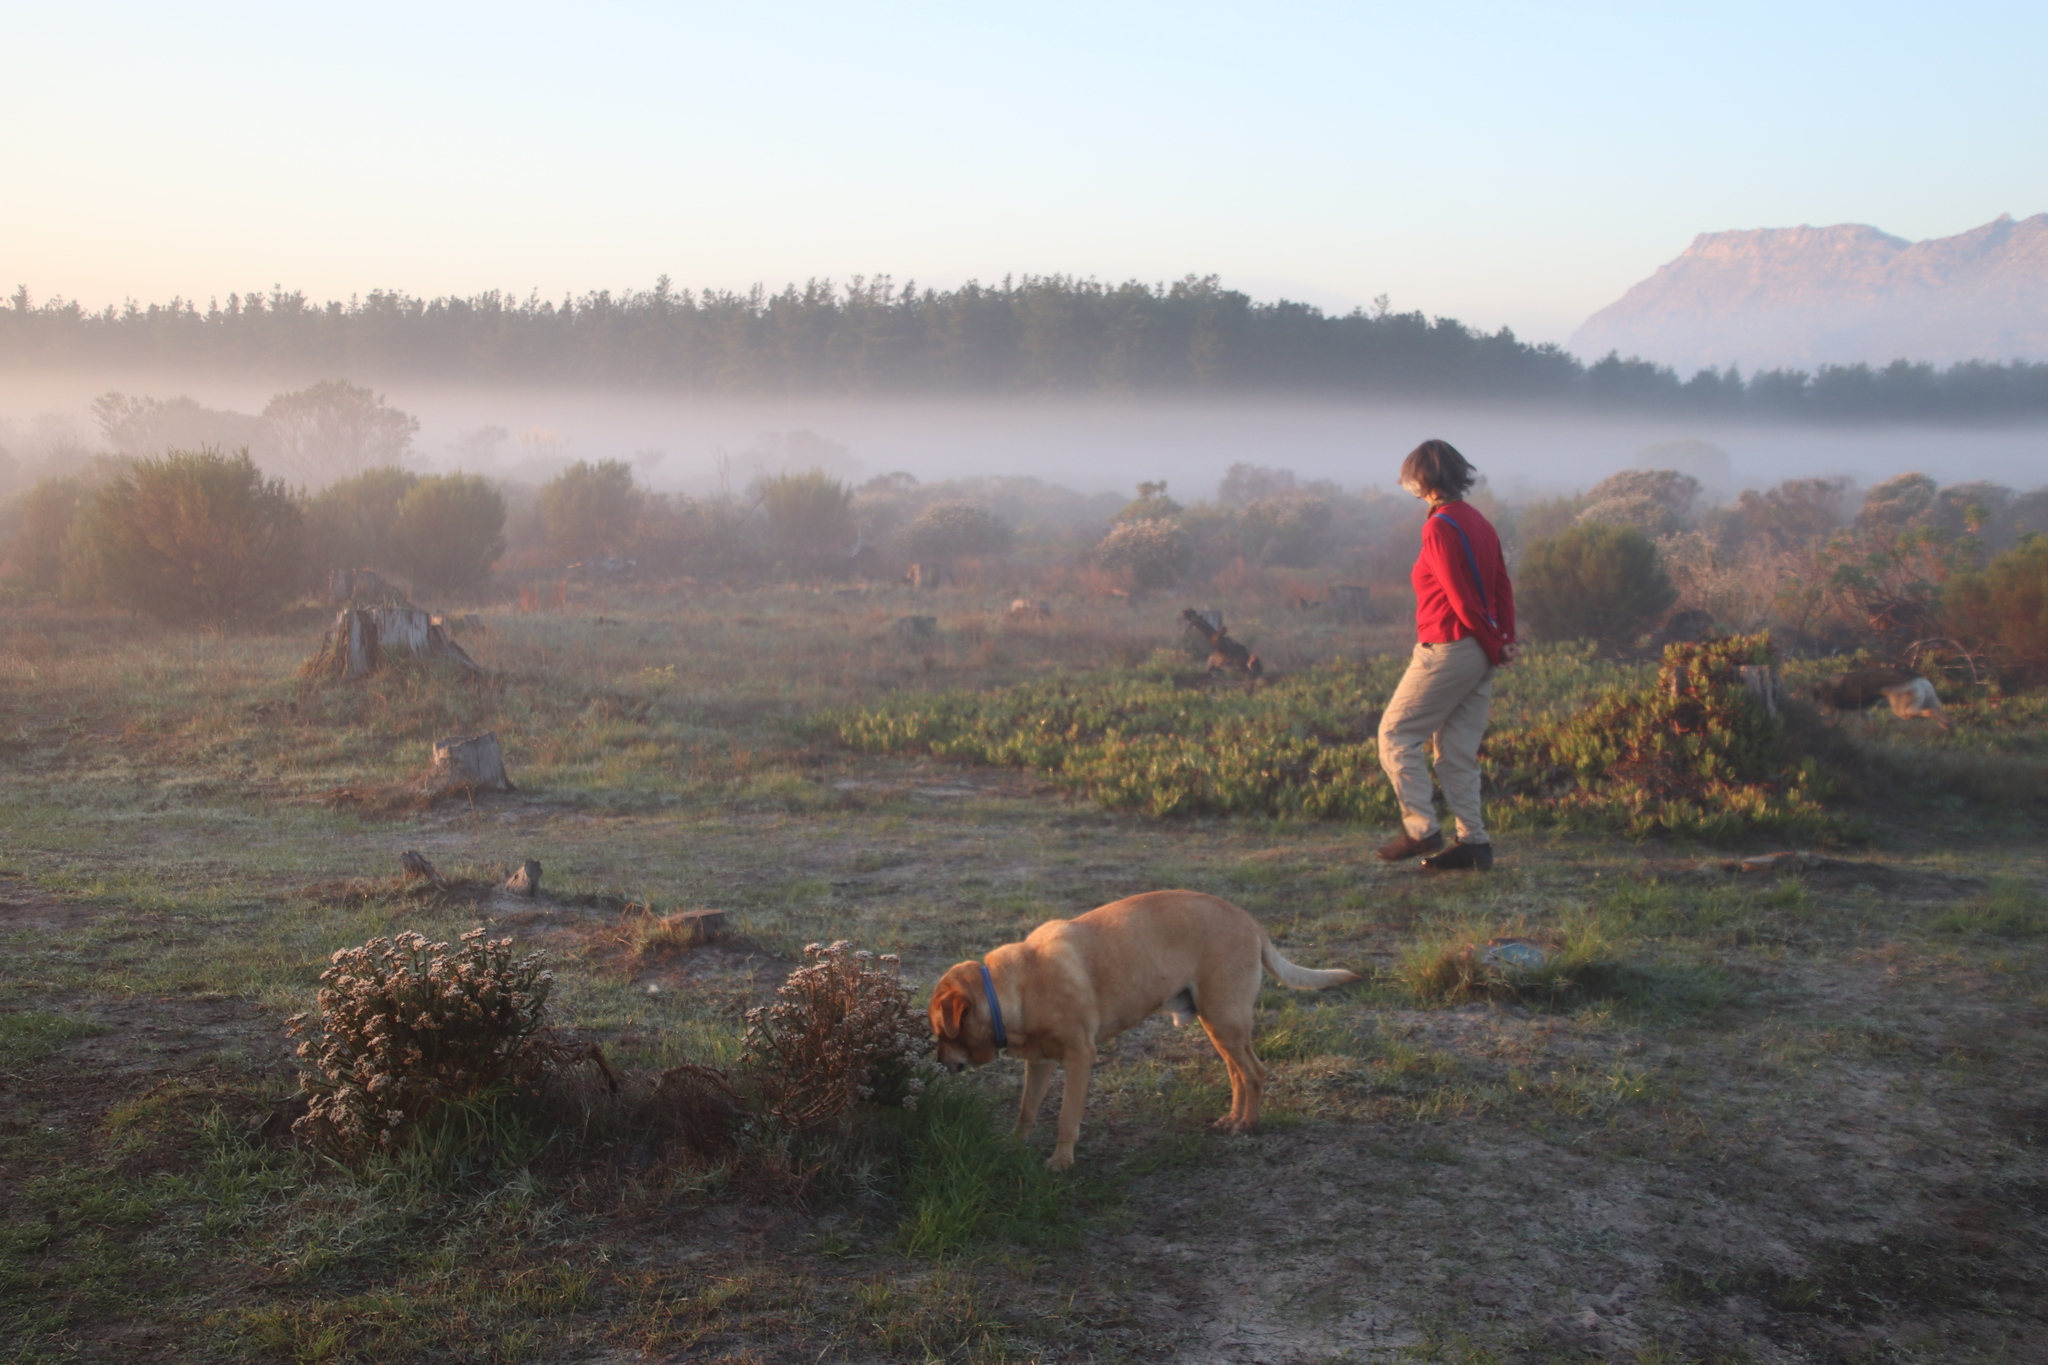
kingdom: Plantae
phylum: Tracheophyta
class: Magnoliopsida
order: Caryophyllales
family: Aizoaceae
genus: Carpobrotus
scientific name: Carpobrotus edulis
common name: Hottentot-fig
